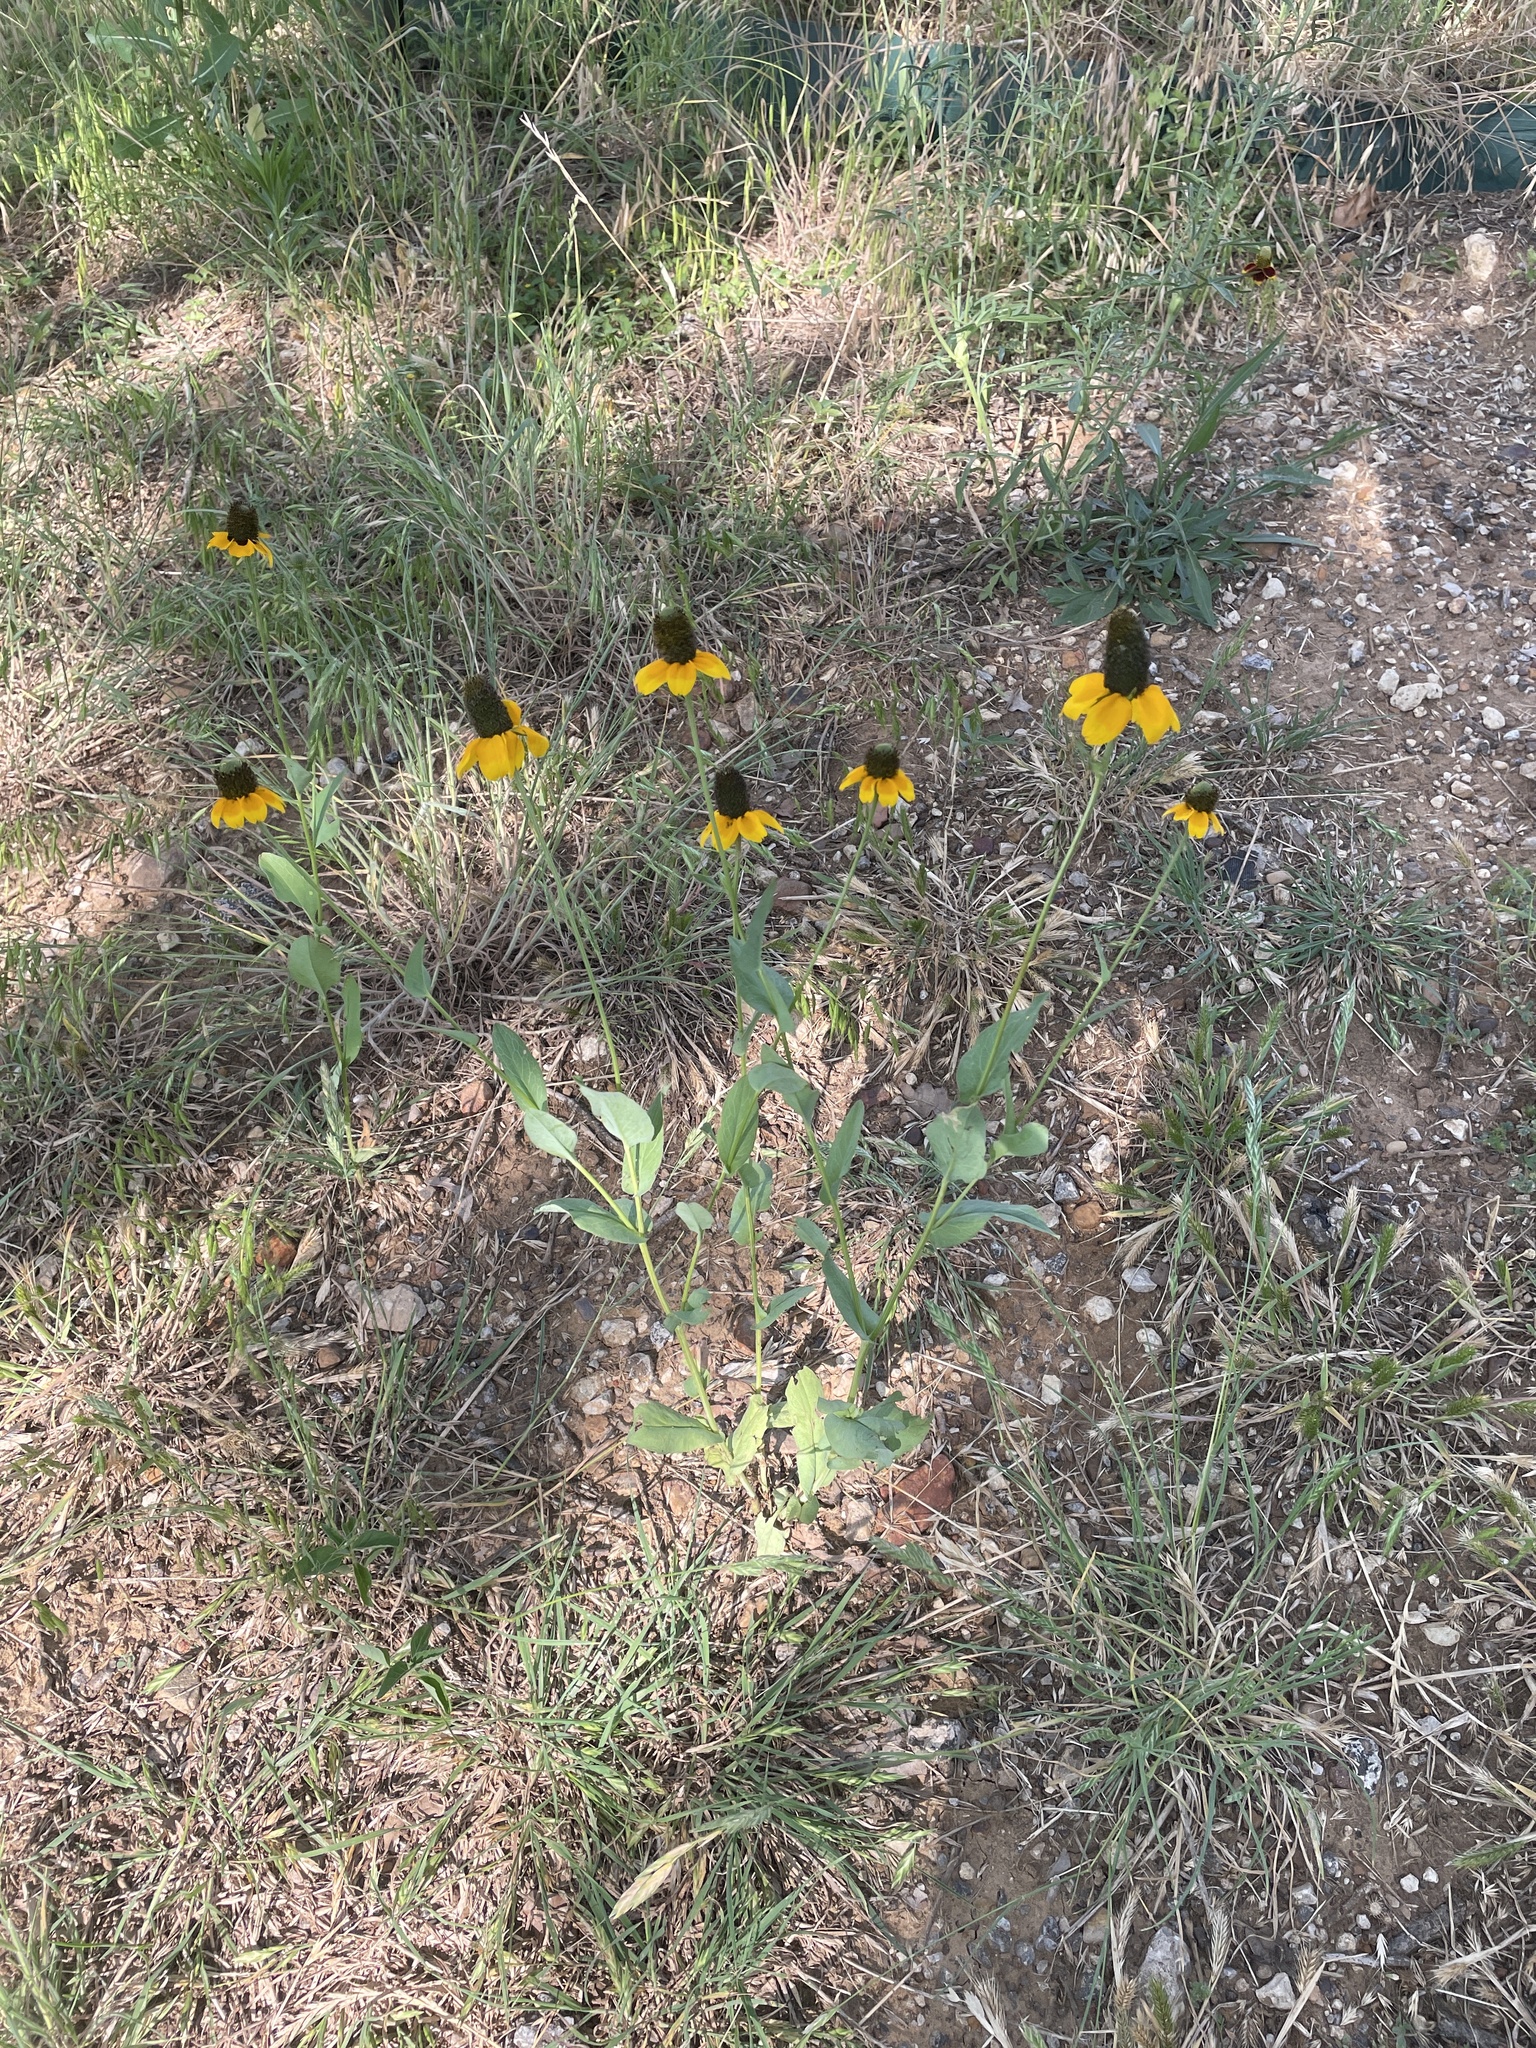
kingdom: Plantae
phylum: Tracheophyta
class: Magnoliopsida
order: Asterales
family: Asteraceae
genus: Rudbeckia
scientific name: Rudbeckia amplexicaulis
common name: Clasping-leaf coneflower
